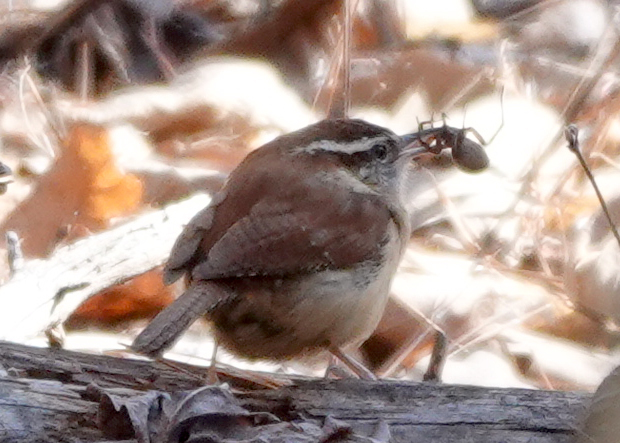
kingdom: Animalia
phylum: Chordata
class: Aves
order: Passeriformes
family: Troglodytidae
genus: Thryothorus
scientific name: Thryothorus ludovicianus
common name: Carolina wren
